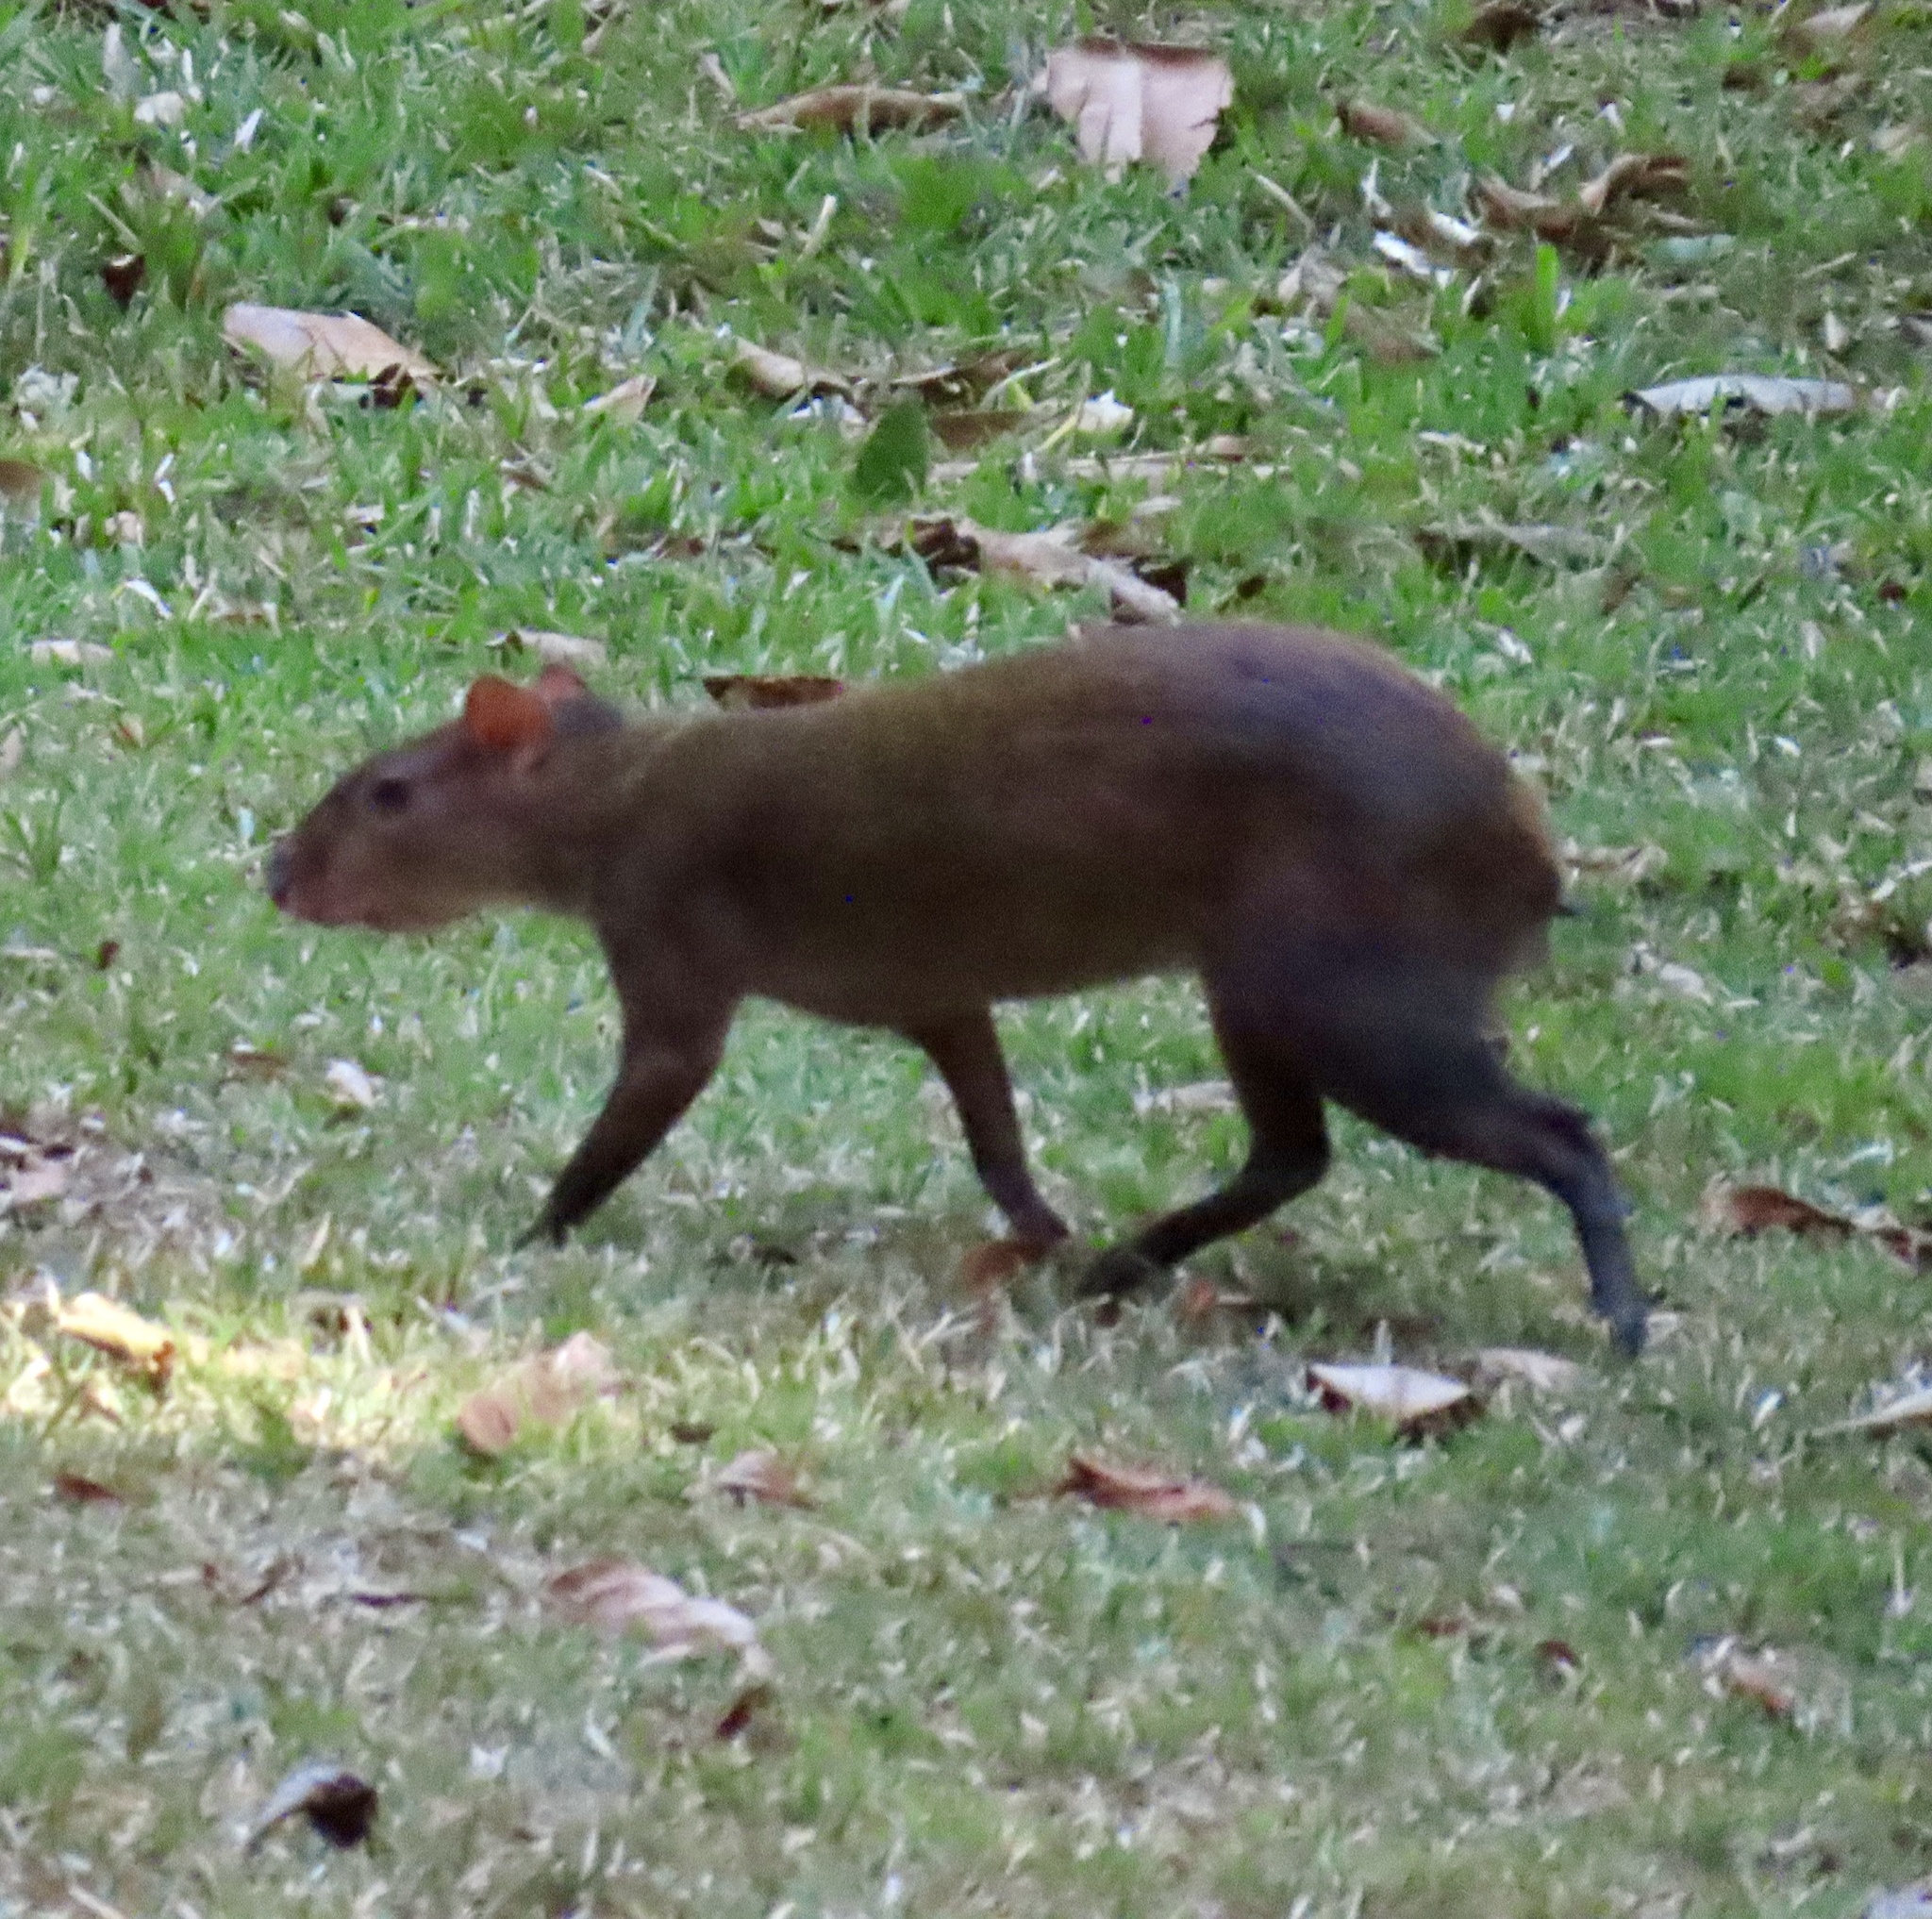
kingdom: Animalia
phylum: Chordata
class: Mammalia
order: Rodentia
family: Dasyproctidae
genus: Dasyprocta
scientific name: Dasyprocta punctata
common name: Central american agouti
